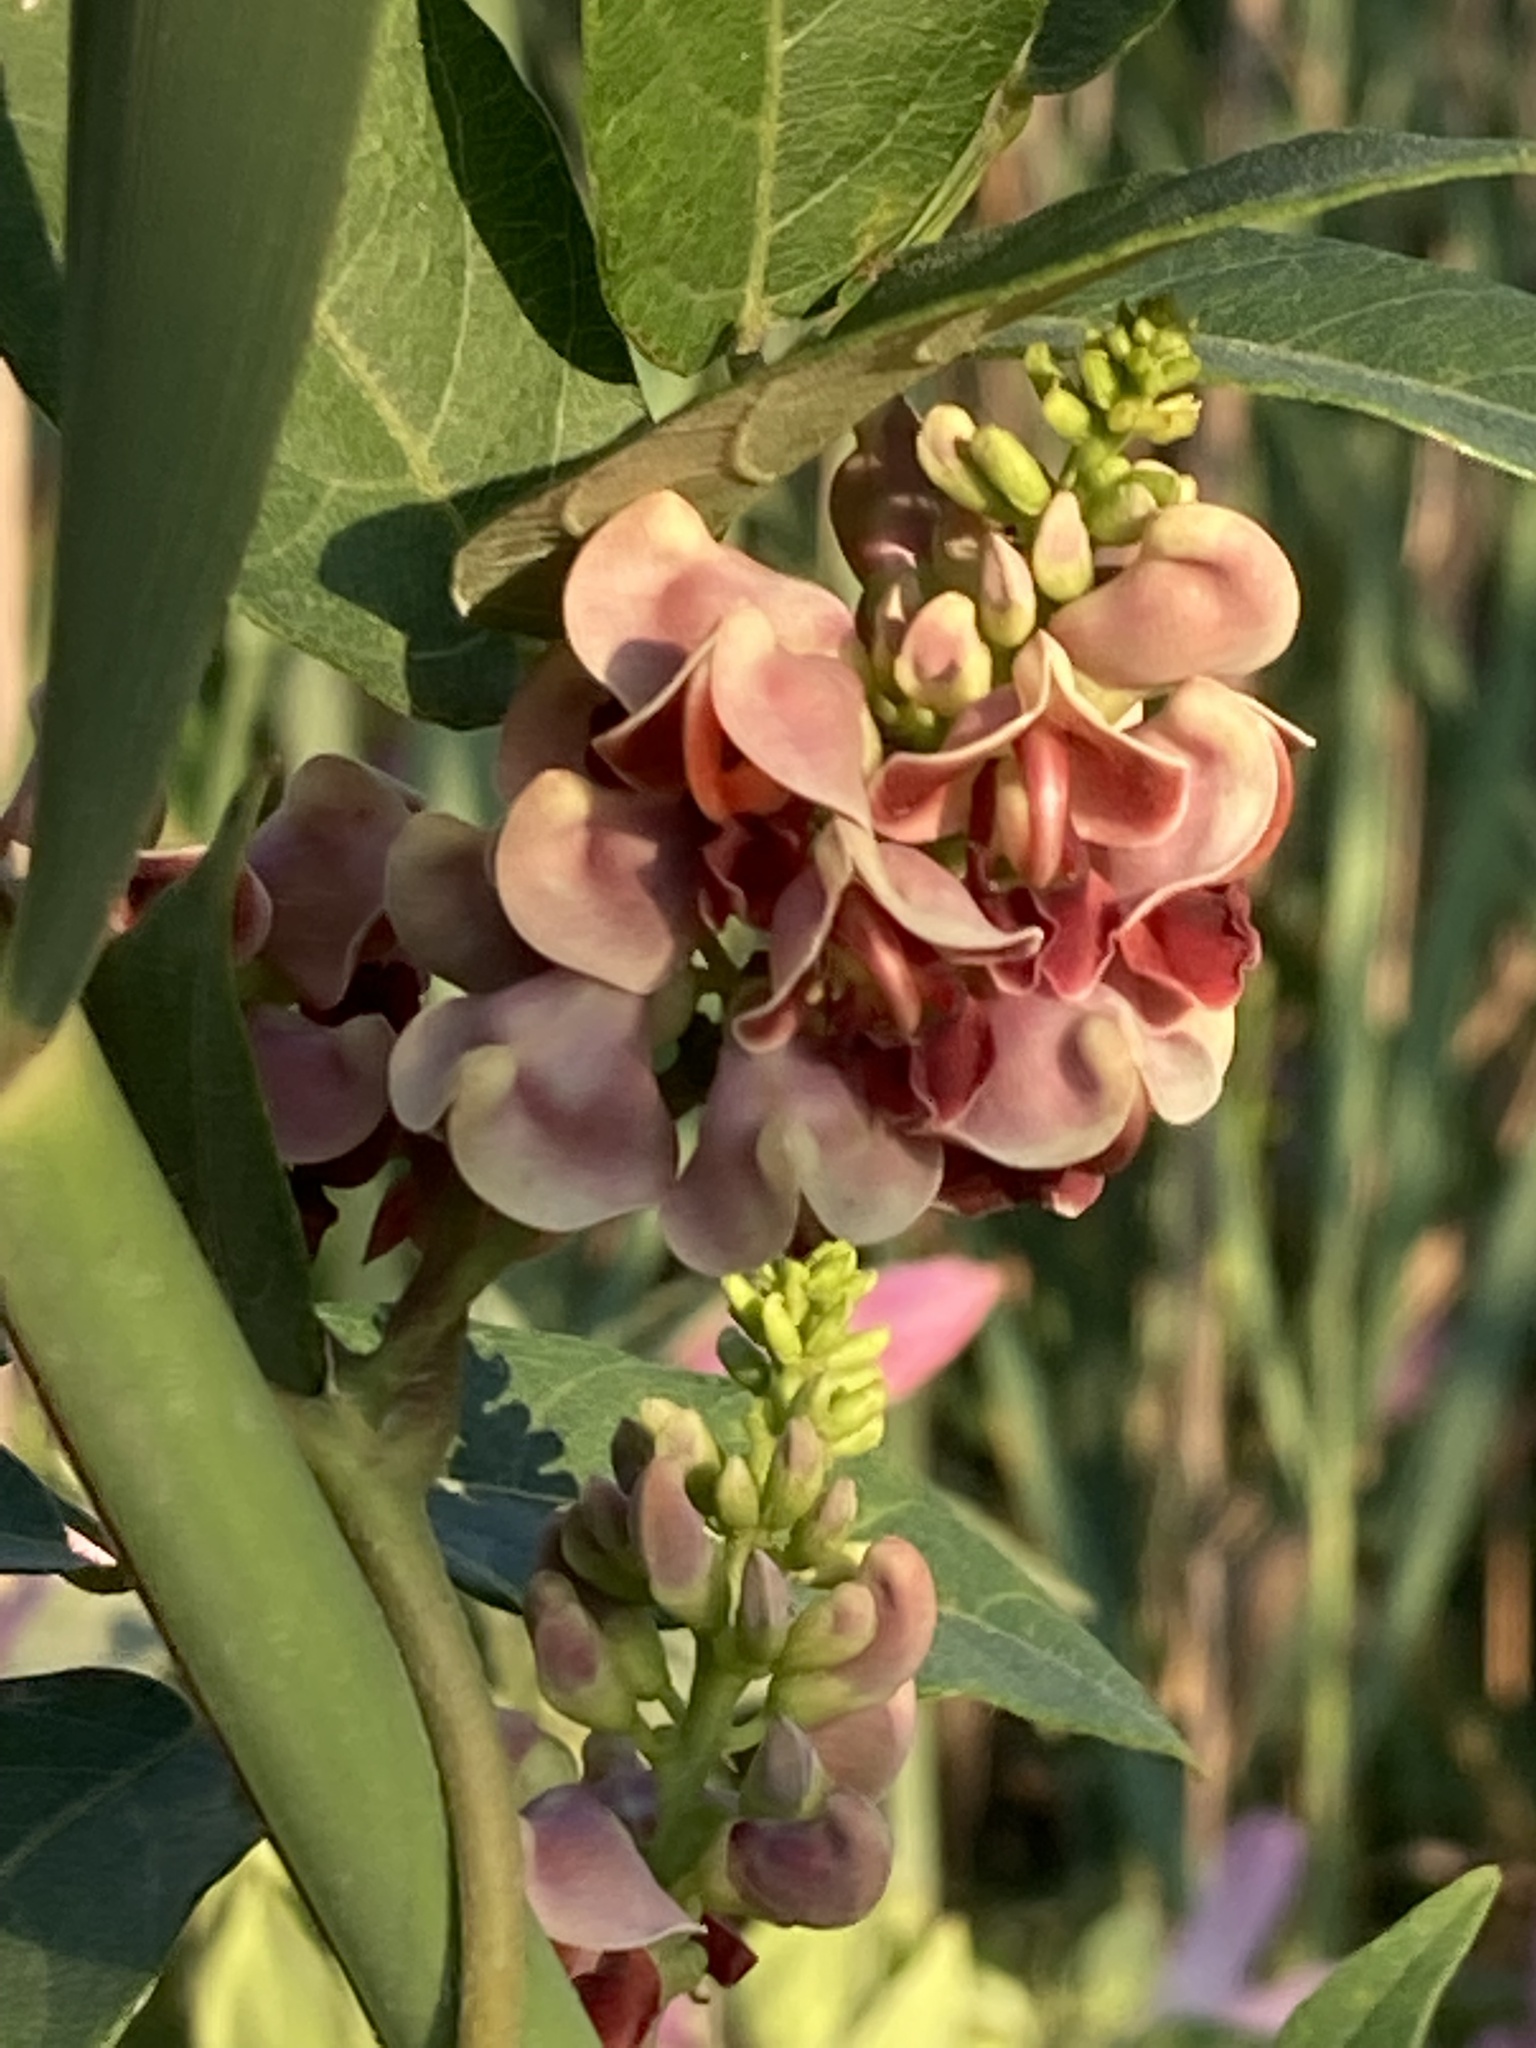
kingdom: Plantae
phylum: Tracheophyta
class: Magnoliopsida
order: Fabales
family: Fabaceae
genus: Apios
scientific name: Apios americana
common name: American potato-bean
